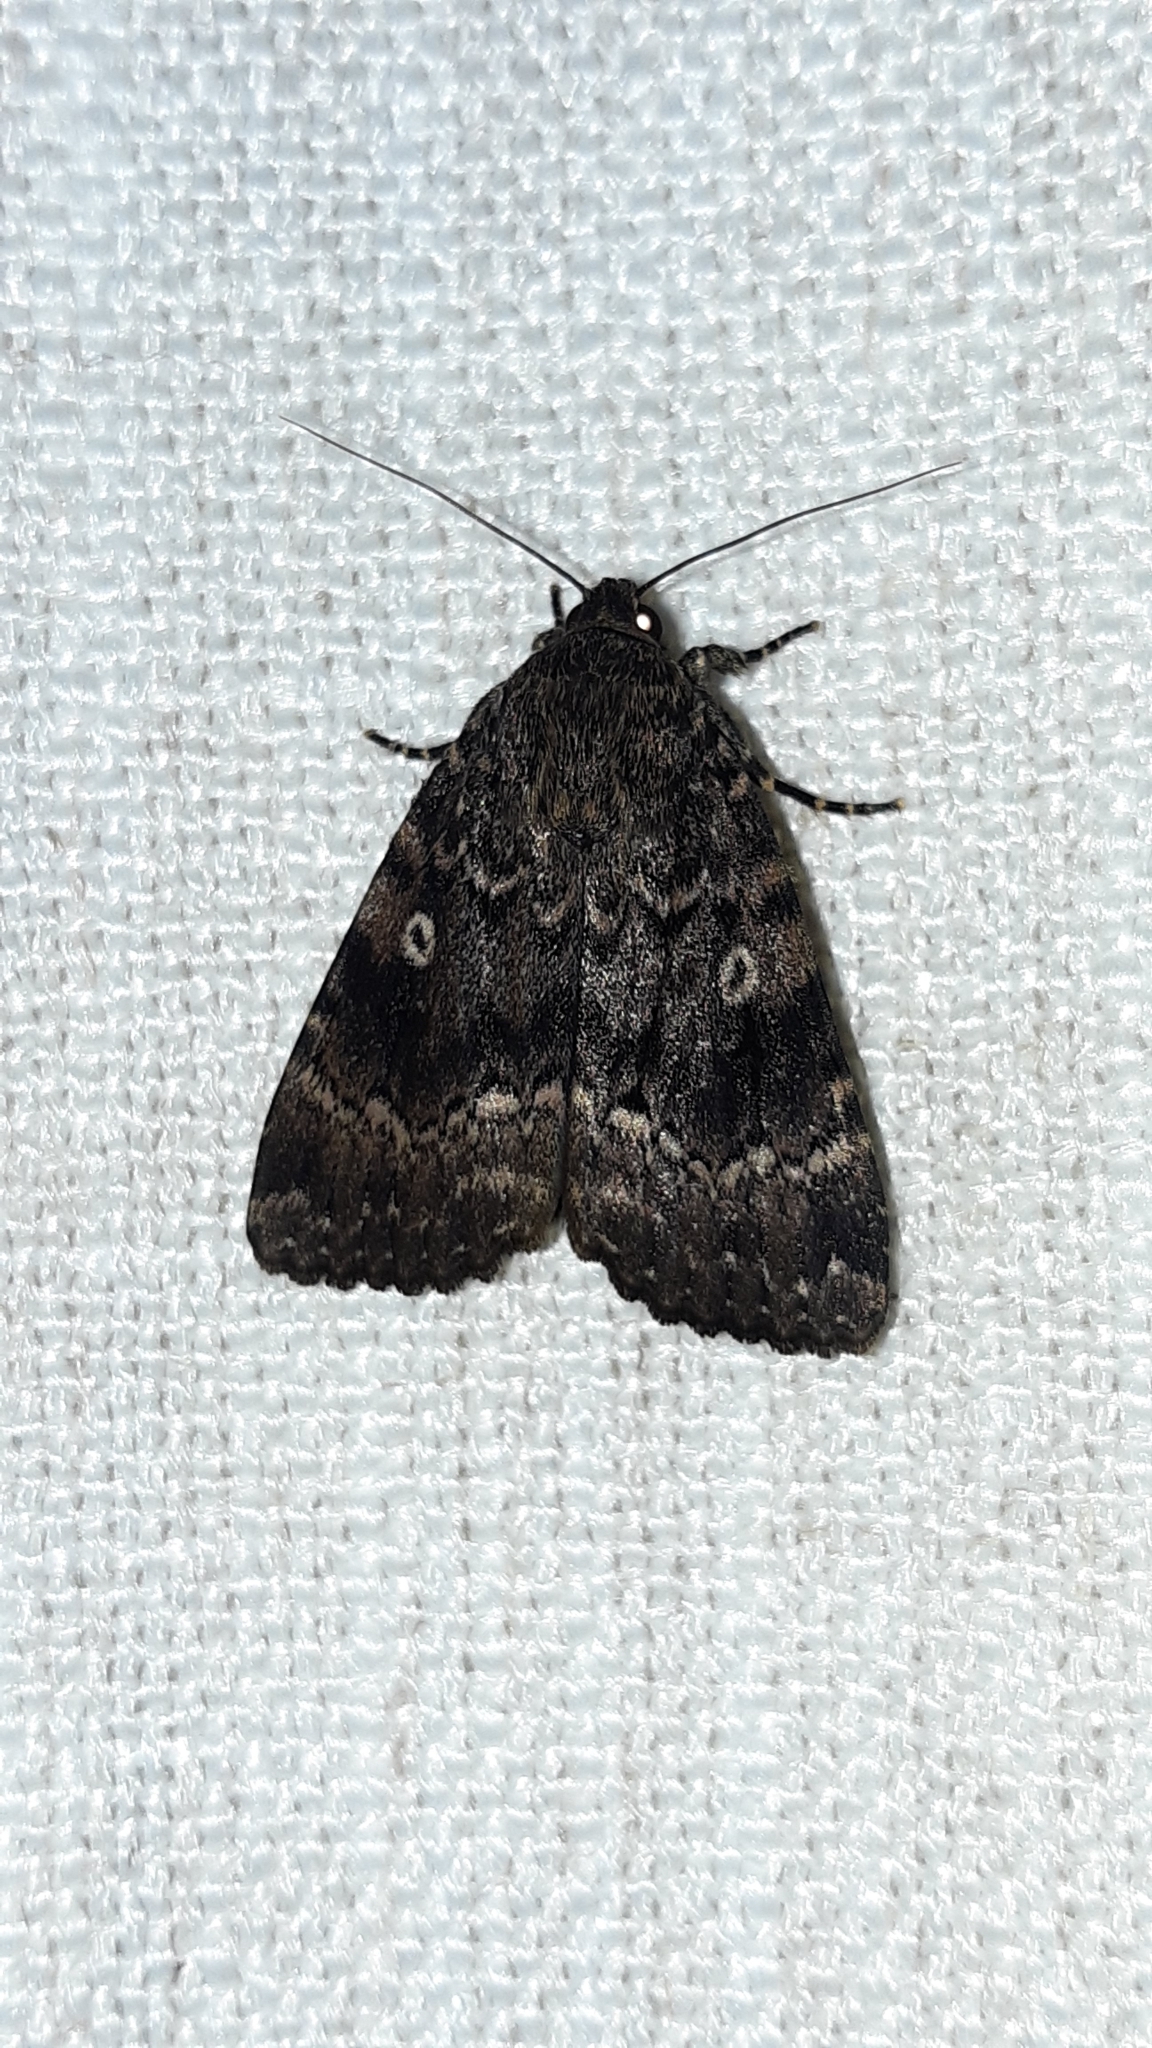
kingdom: Animalia
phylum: Arthropoda
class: Insecta
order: Lepidoptera
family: Noctuidae
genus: Amphipyra
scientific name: Amphipyra berbera
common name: Svensson's copper underwing
